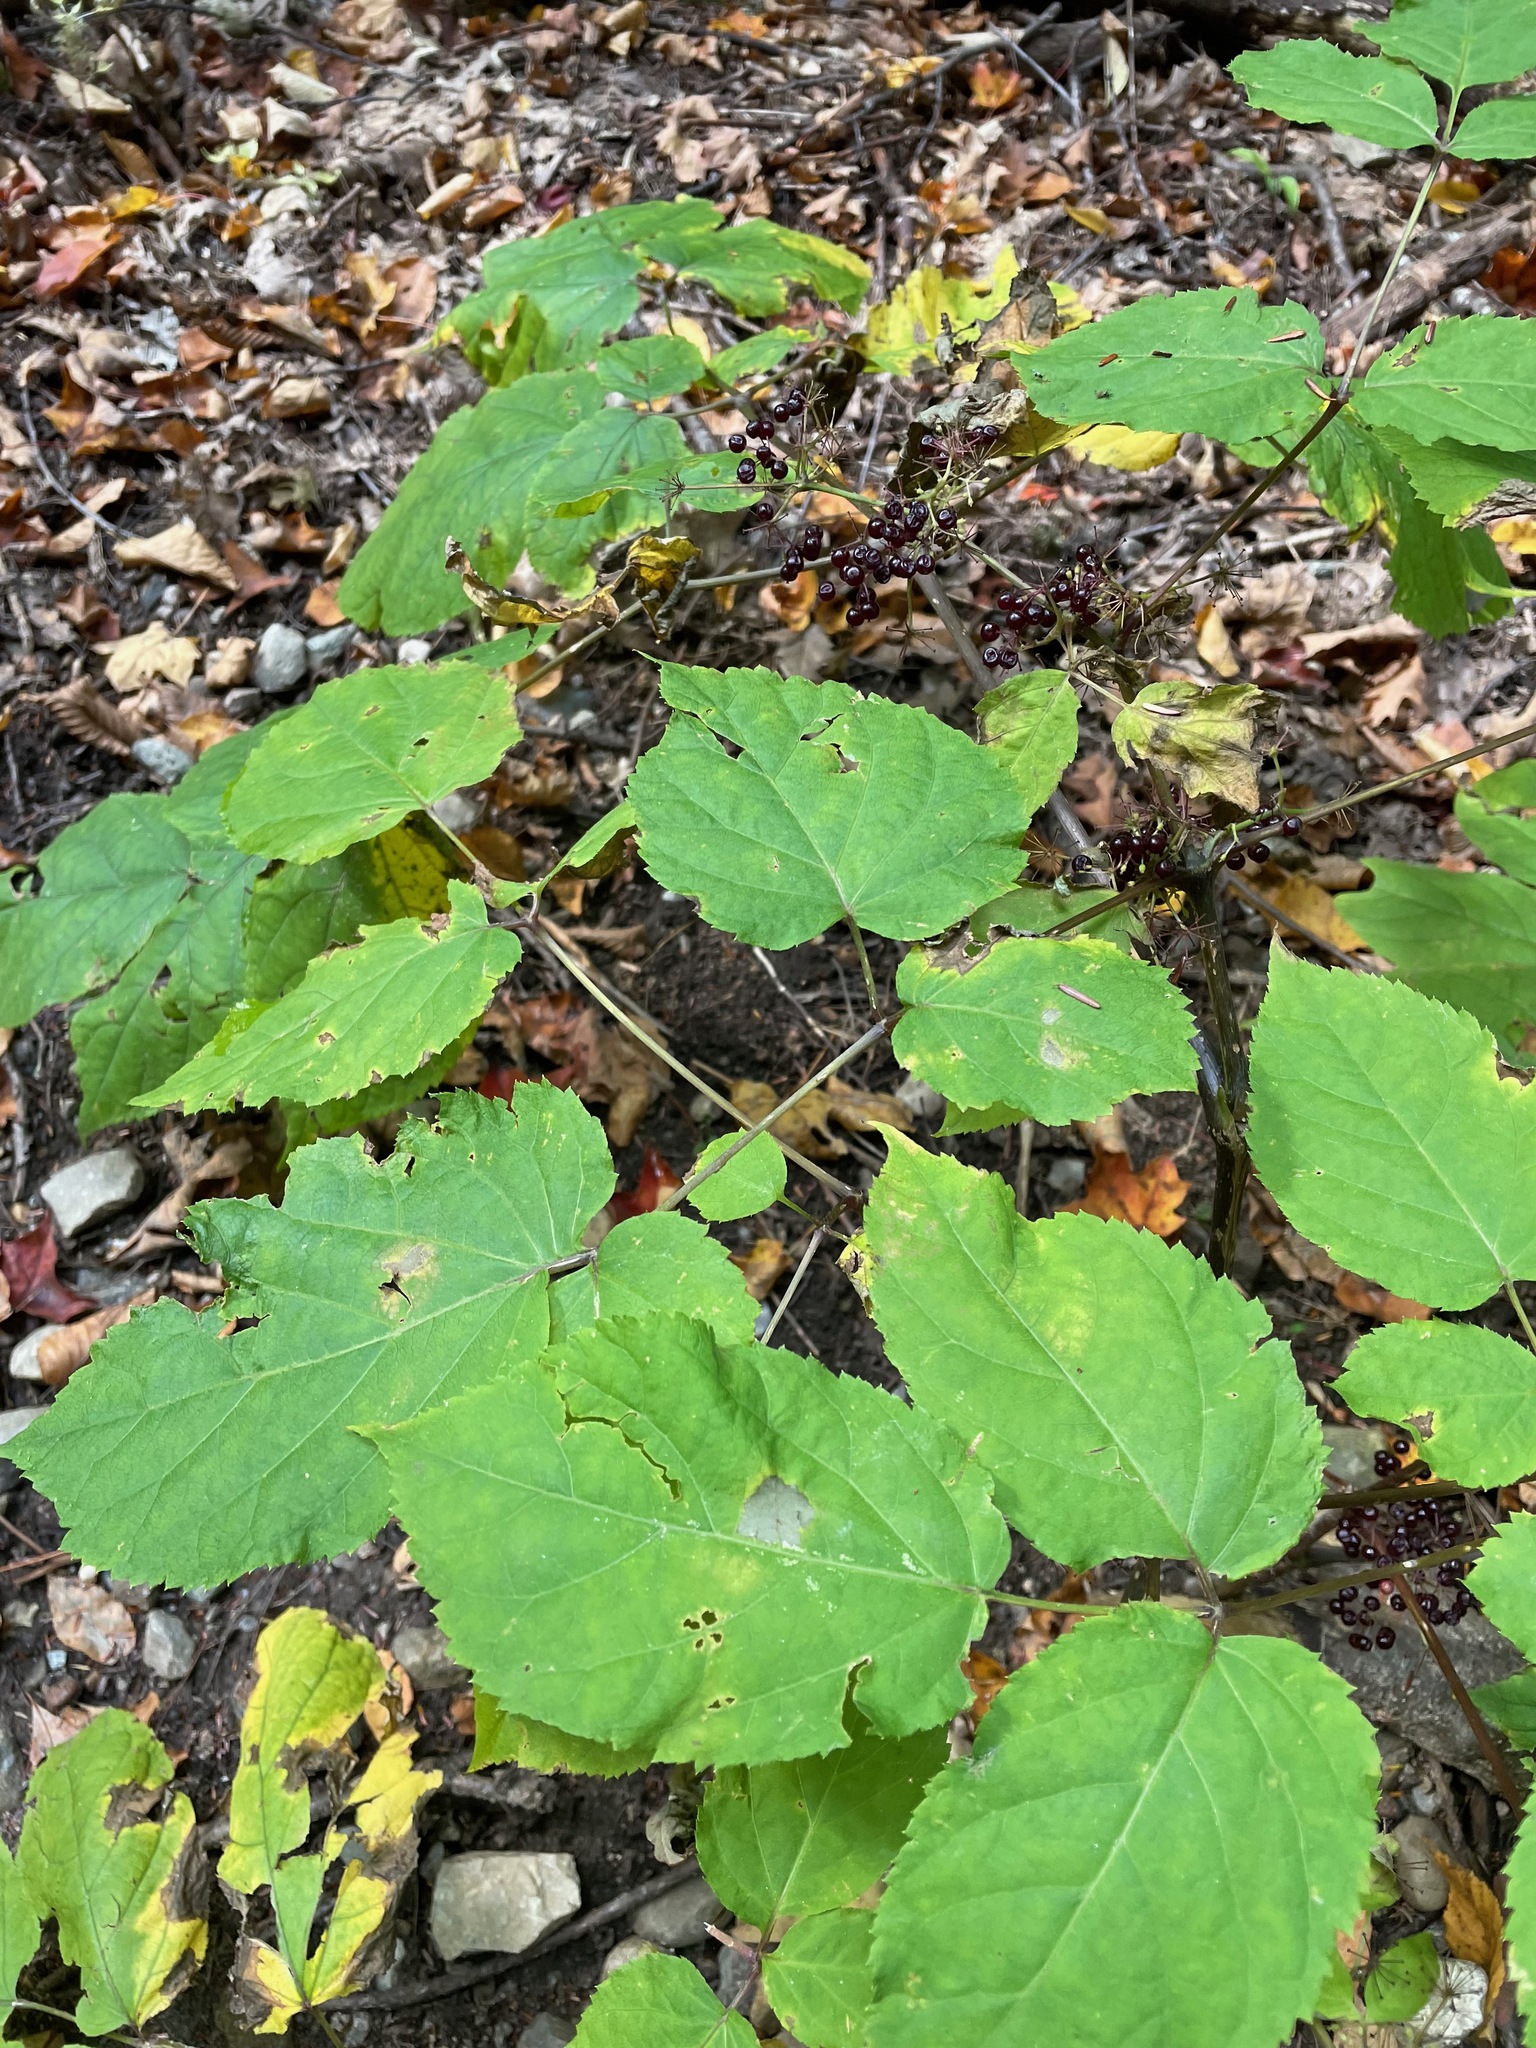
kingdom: Plantae
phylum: Tracheophyta
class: Magnoliopsida
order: Apiales
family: Araliaceae
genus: Aralia
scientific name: Aralia racemosa
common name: American-spikenard
